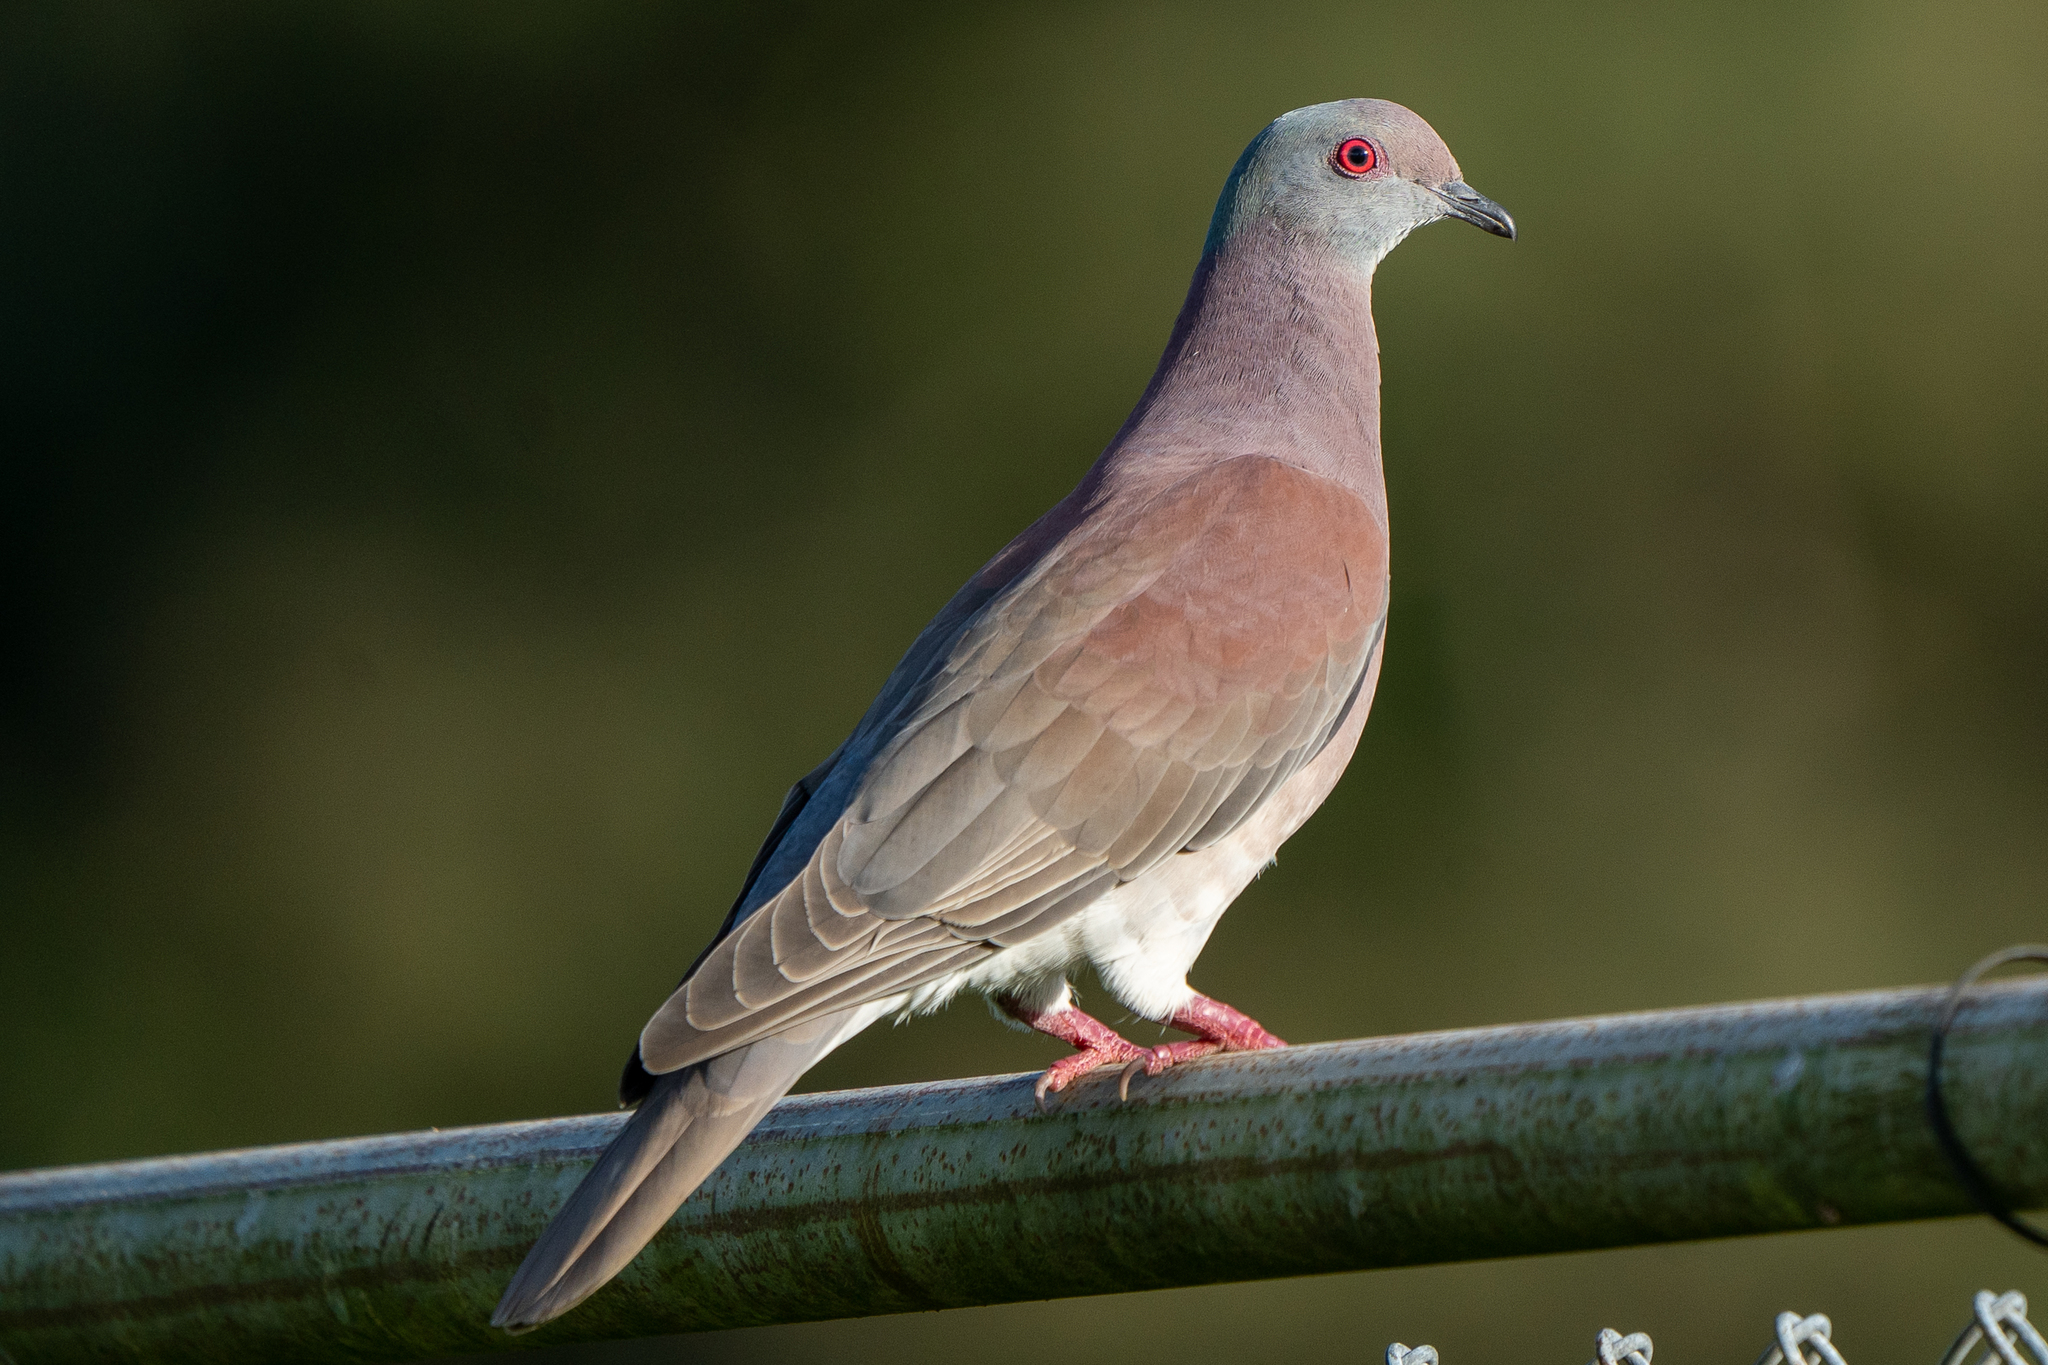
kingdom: Animalia
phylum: Chordata
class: Aves
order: Columbiformes
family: Columbidae
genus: Patagioenas
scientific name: Patagioenas cayennensis
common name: Pale-vented pigeon
